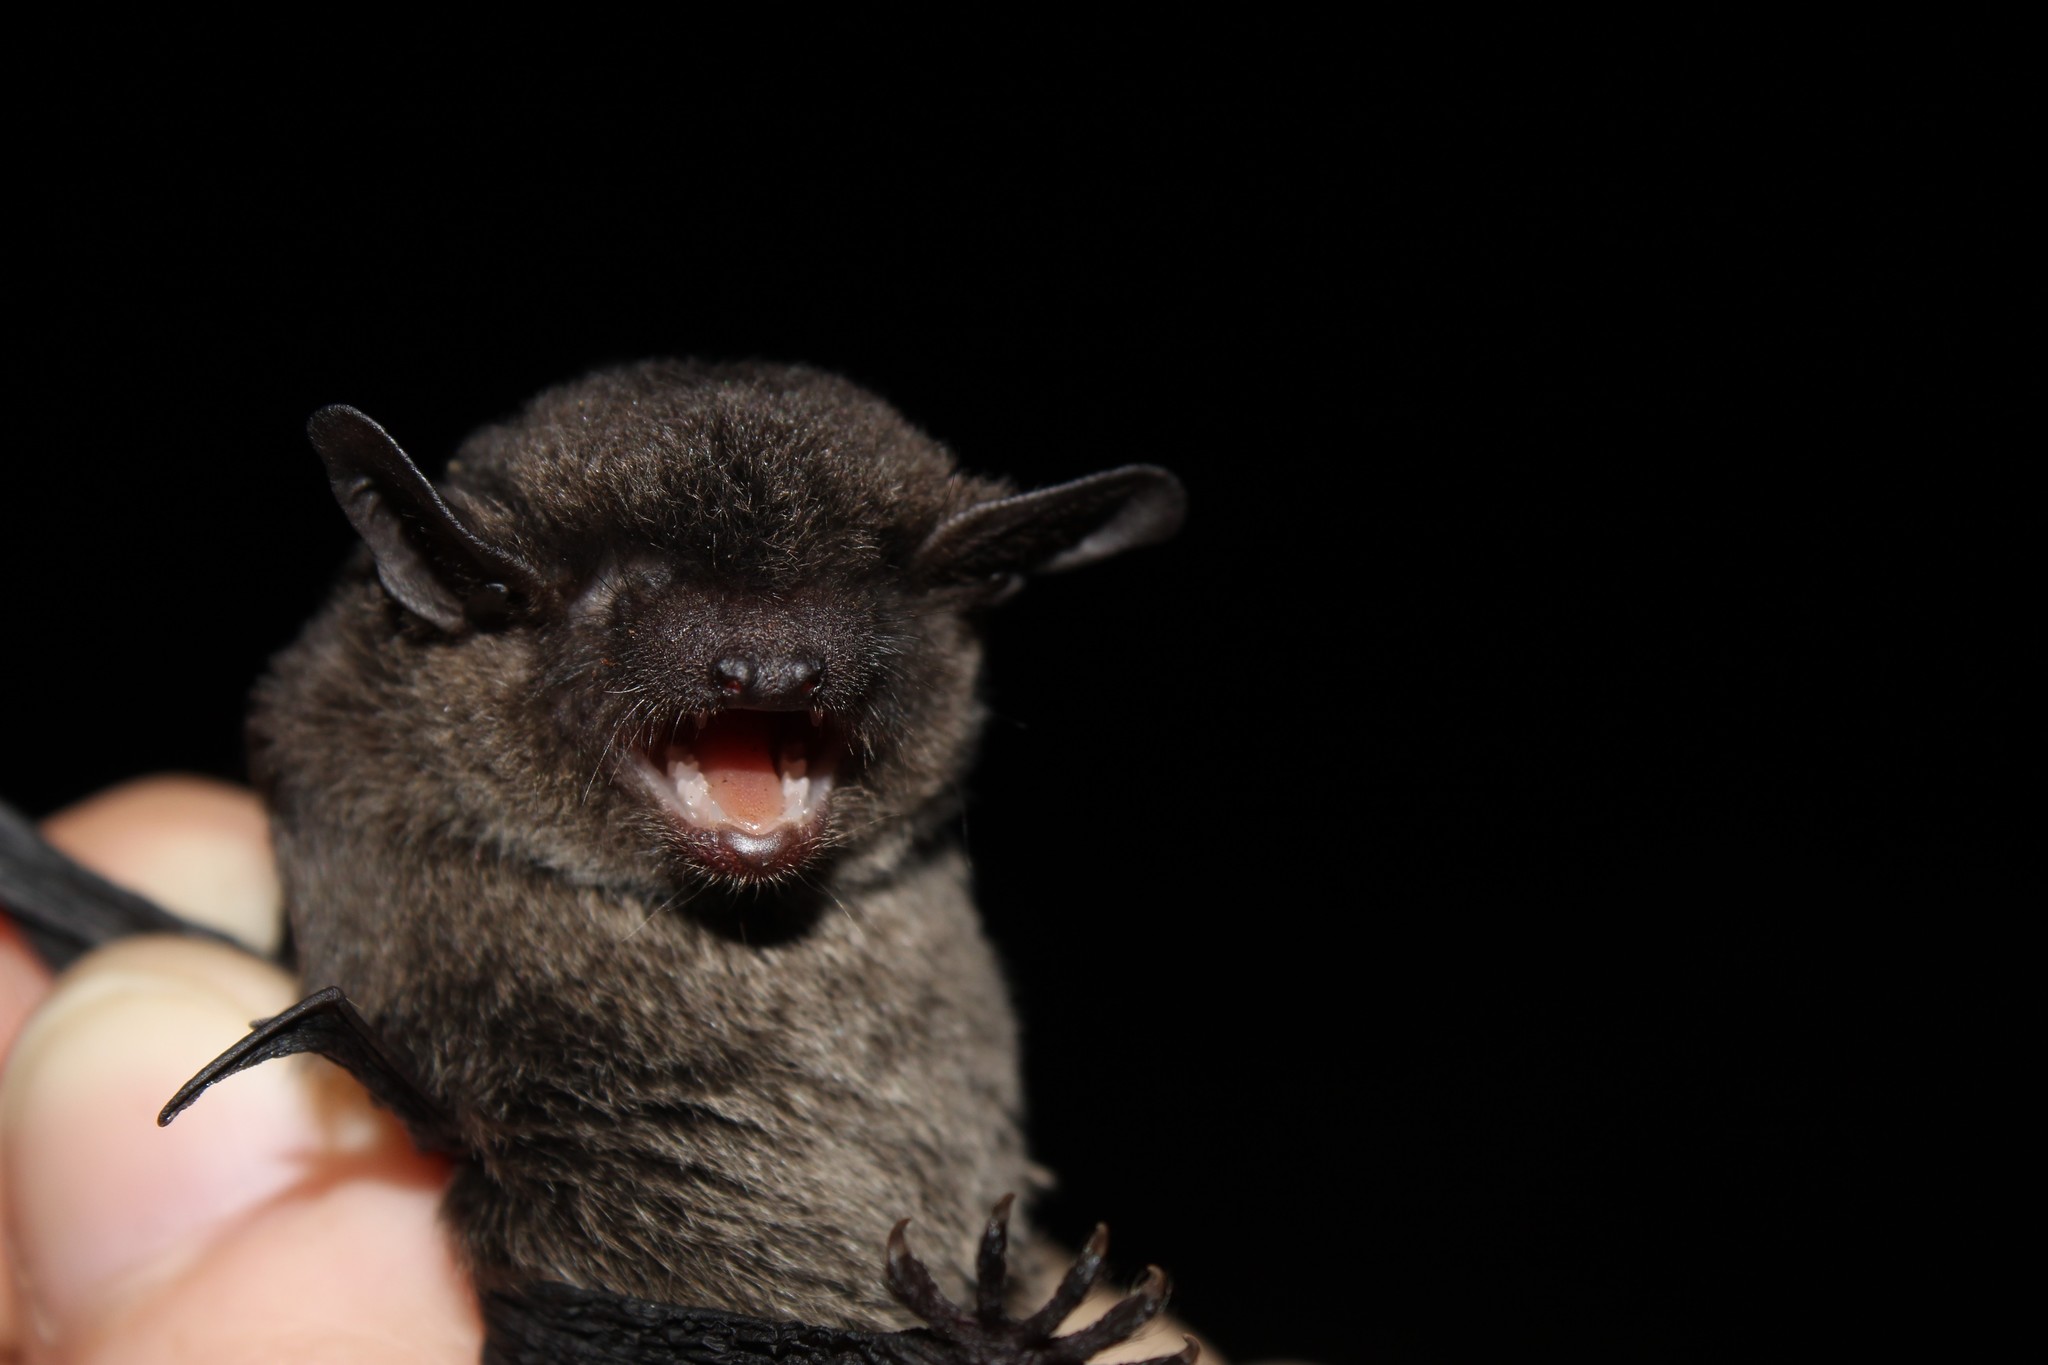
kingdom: Animalia
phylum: Chordata
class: Mammalia
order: Chiroptera
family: Vespertilionidae
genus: Eptesicus
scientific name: Eptesicus diminutus
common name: Diminutive serotine
